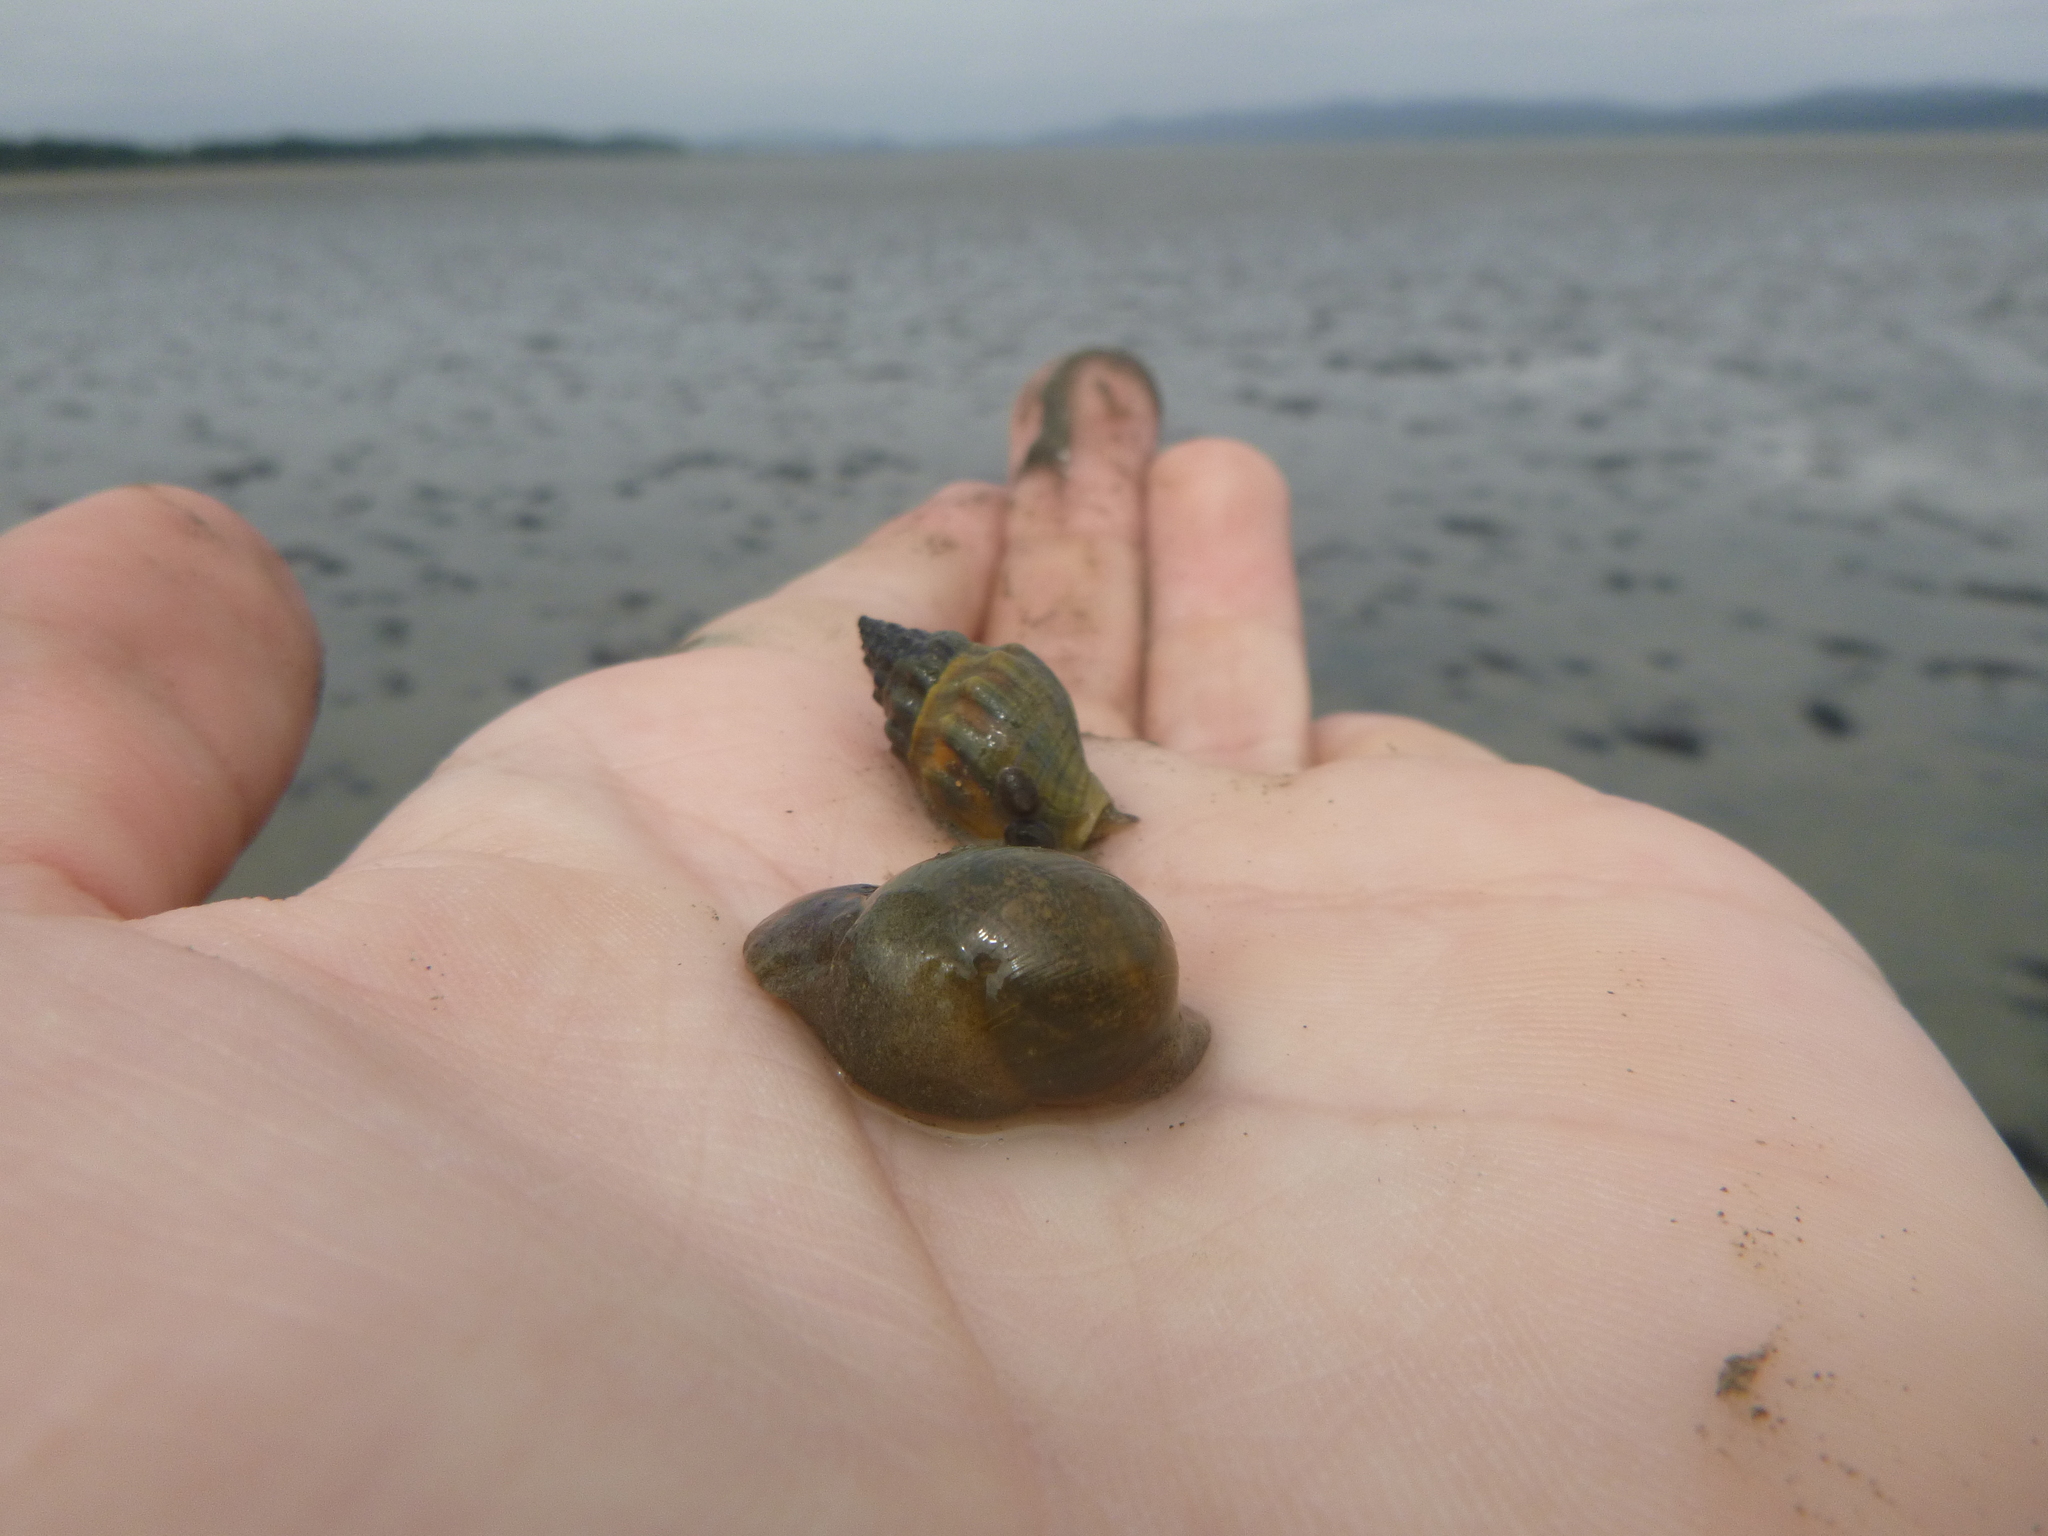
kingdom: Animalia
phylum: Mollusca
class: Gastropoda
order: Neogastropoda
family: Cominellidae
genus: Cominella
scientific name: Cominella glandiformis
